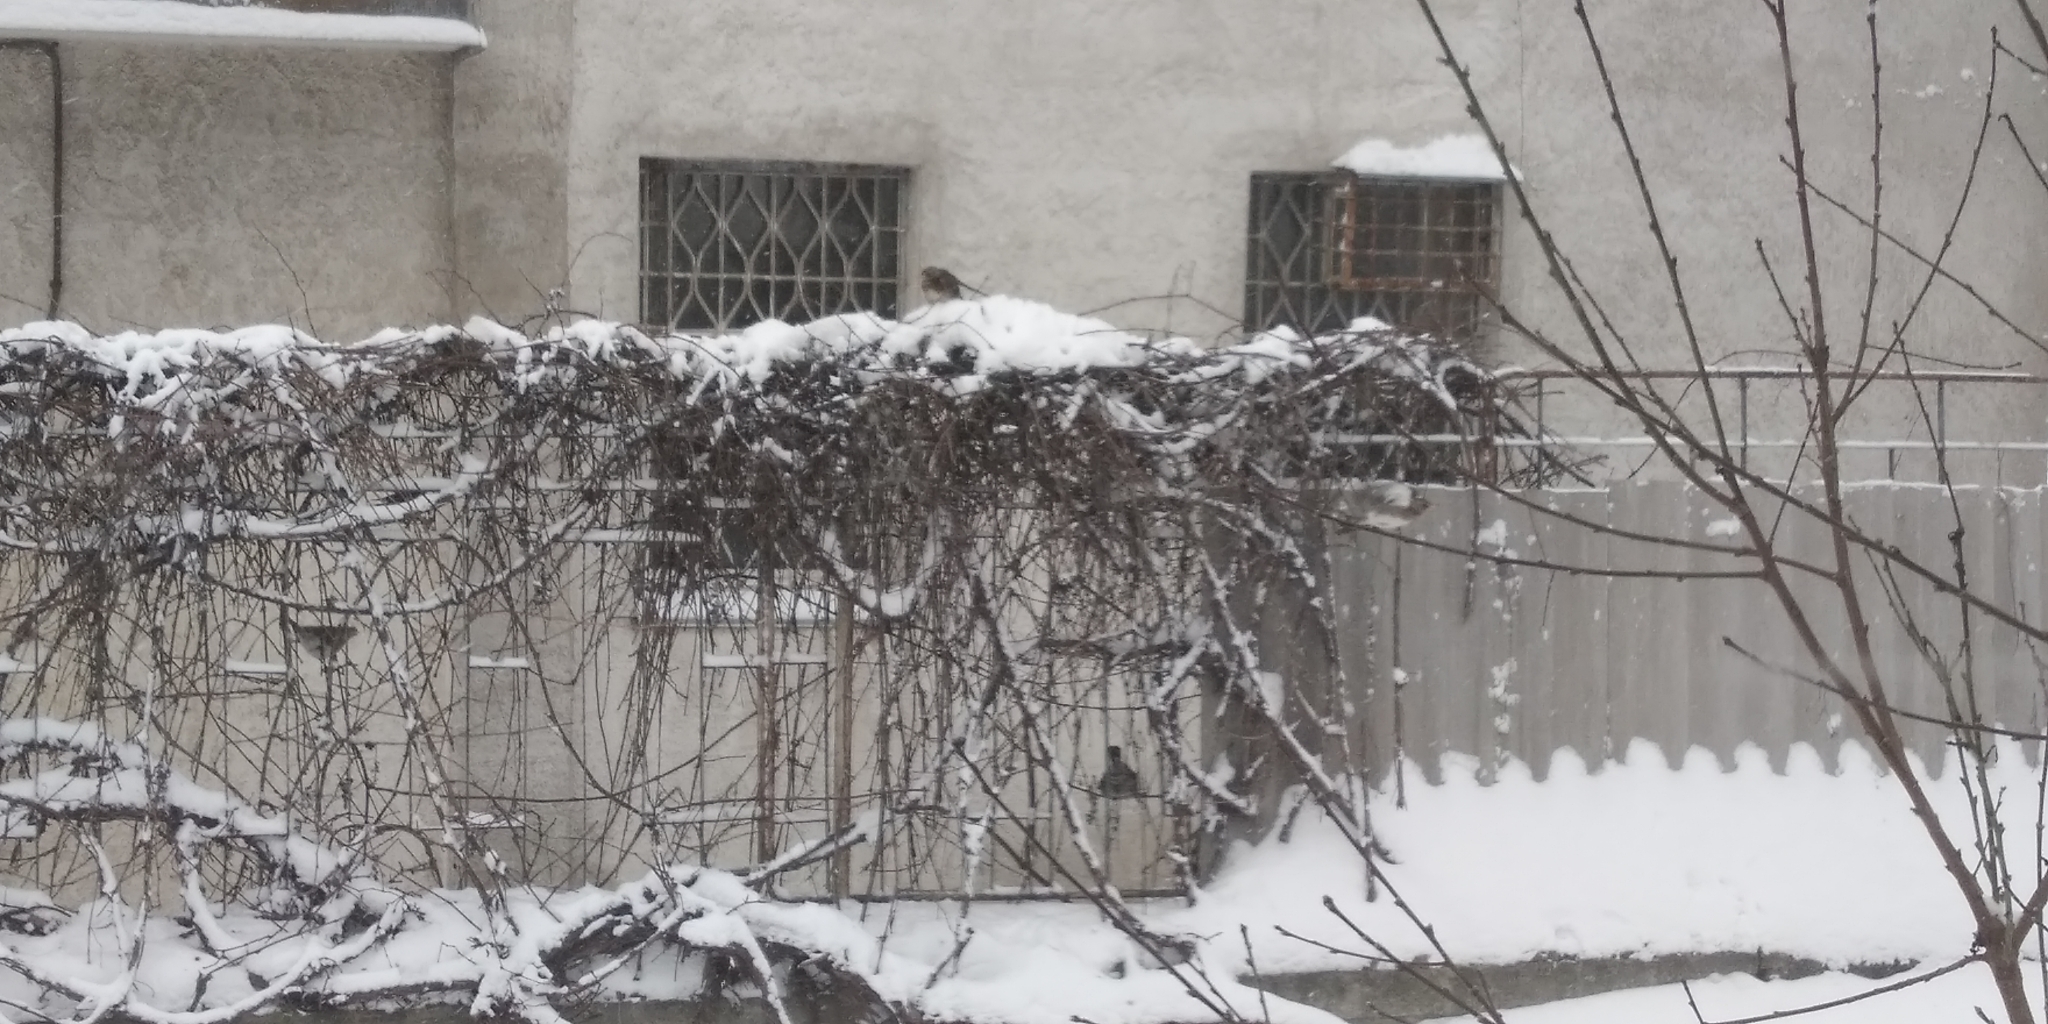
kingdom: Animalia
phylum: Chordata
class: Aves
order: Passeriformes
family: Turdidae
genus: Turdus
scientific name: Turdus pilaris
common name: Fieldfare
